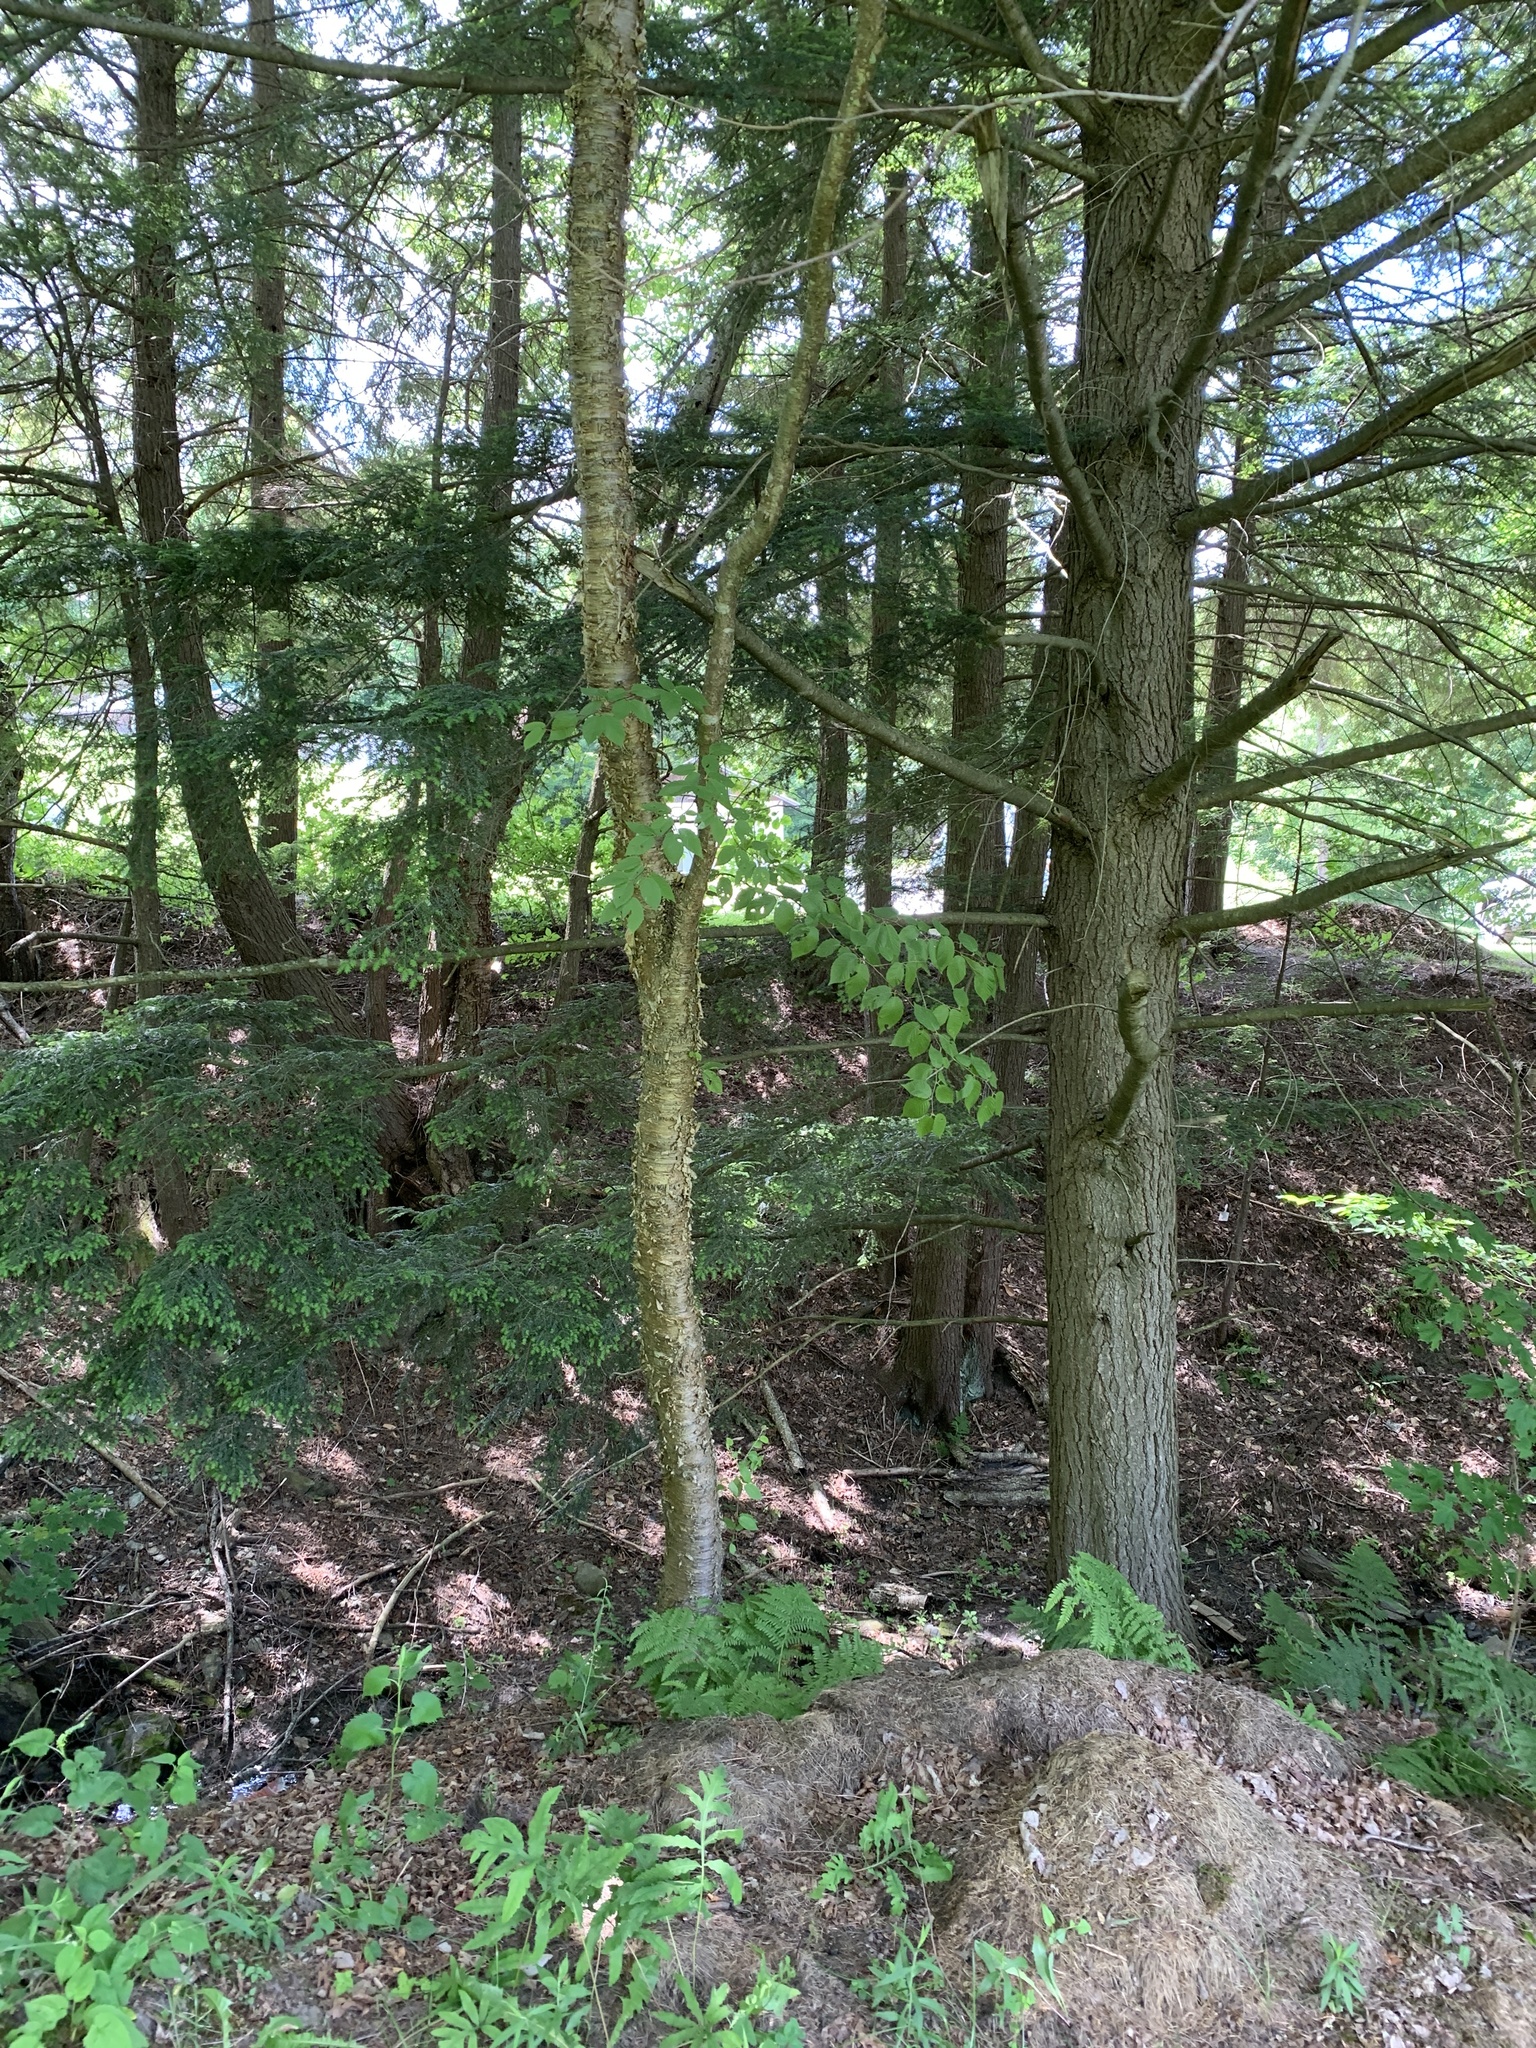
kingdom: Plantae
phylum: Tracheophyta
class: Magnoliopsida
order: Fagales
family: Betulaceae
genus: Betula
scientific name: Betula alleghaniensis
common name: Yellow birch
